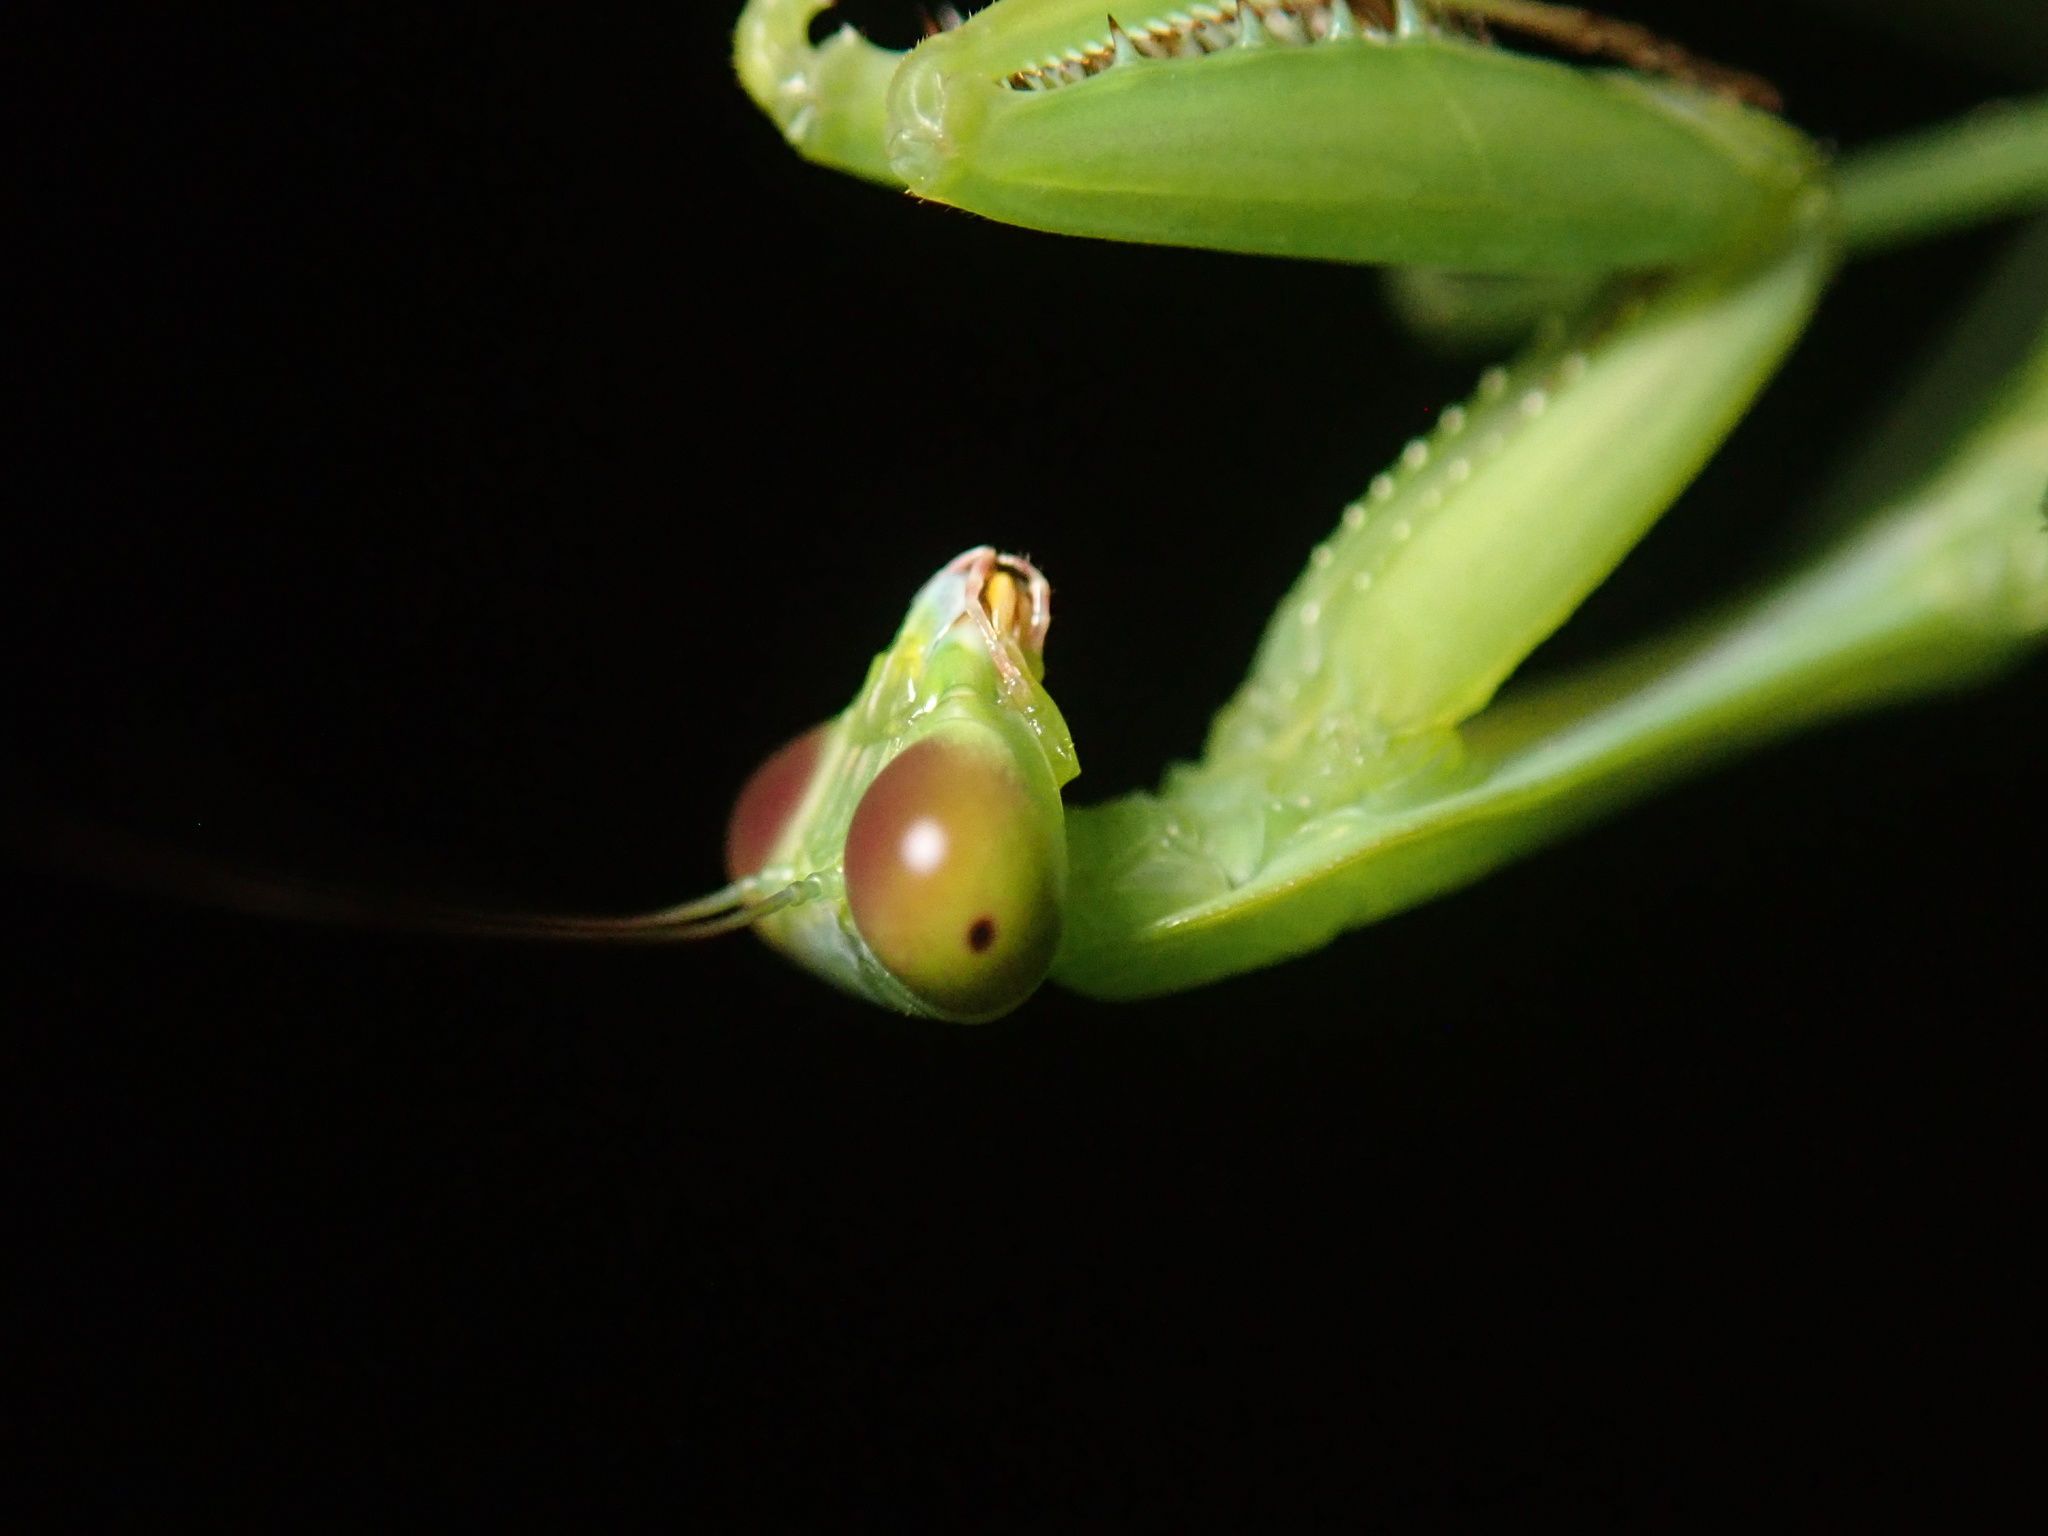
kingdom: Animalia
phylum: Arthropoda
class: Insecta
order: Mantodea
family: Mantidae
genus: Hierodula
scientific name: Hierodula majuscula
